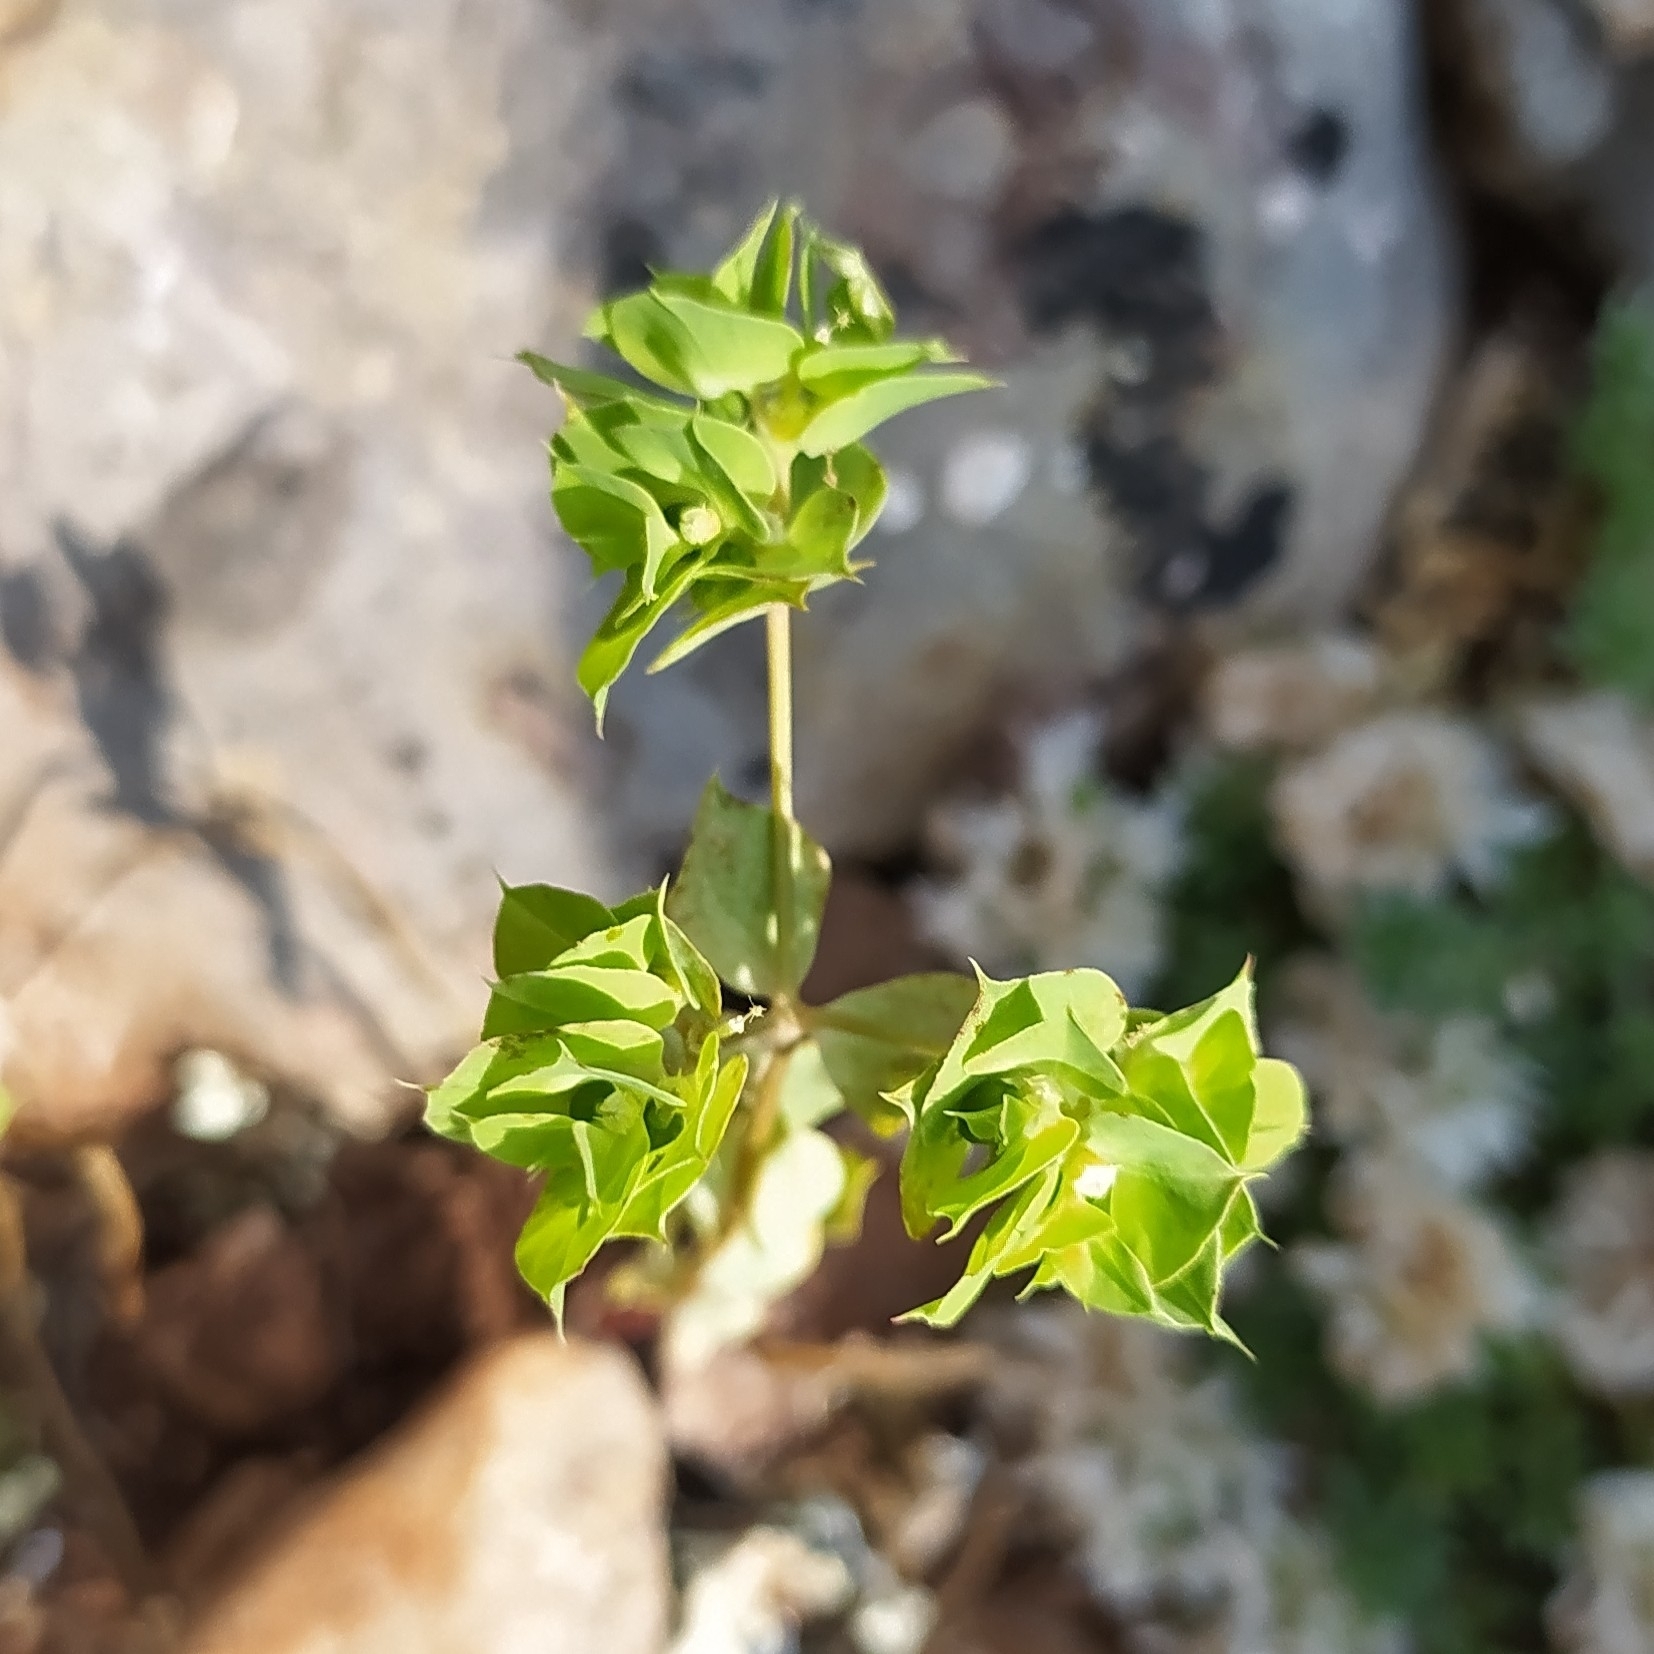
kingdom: Plantae
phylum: Tracheophyta
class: Magnoliopsida
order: Malpighiales
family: Euphorbiaceae
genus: Euphorbia
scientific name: Euphorbia taurinensis
